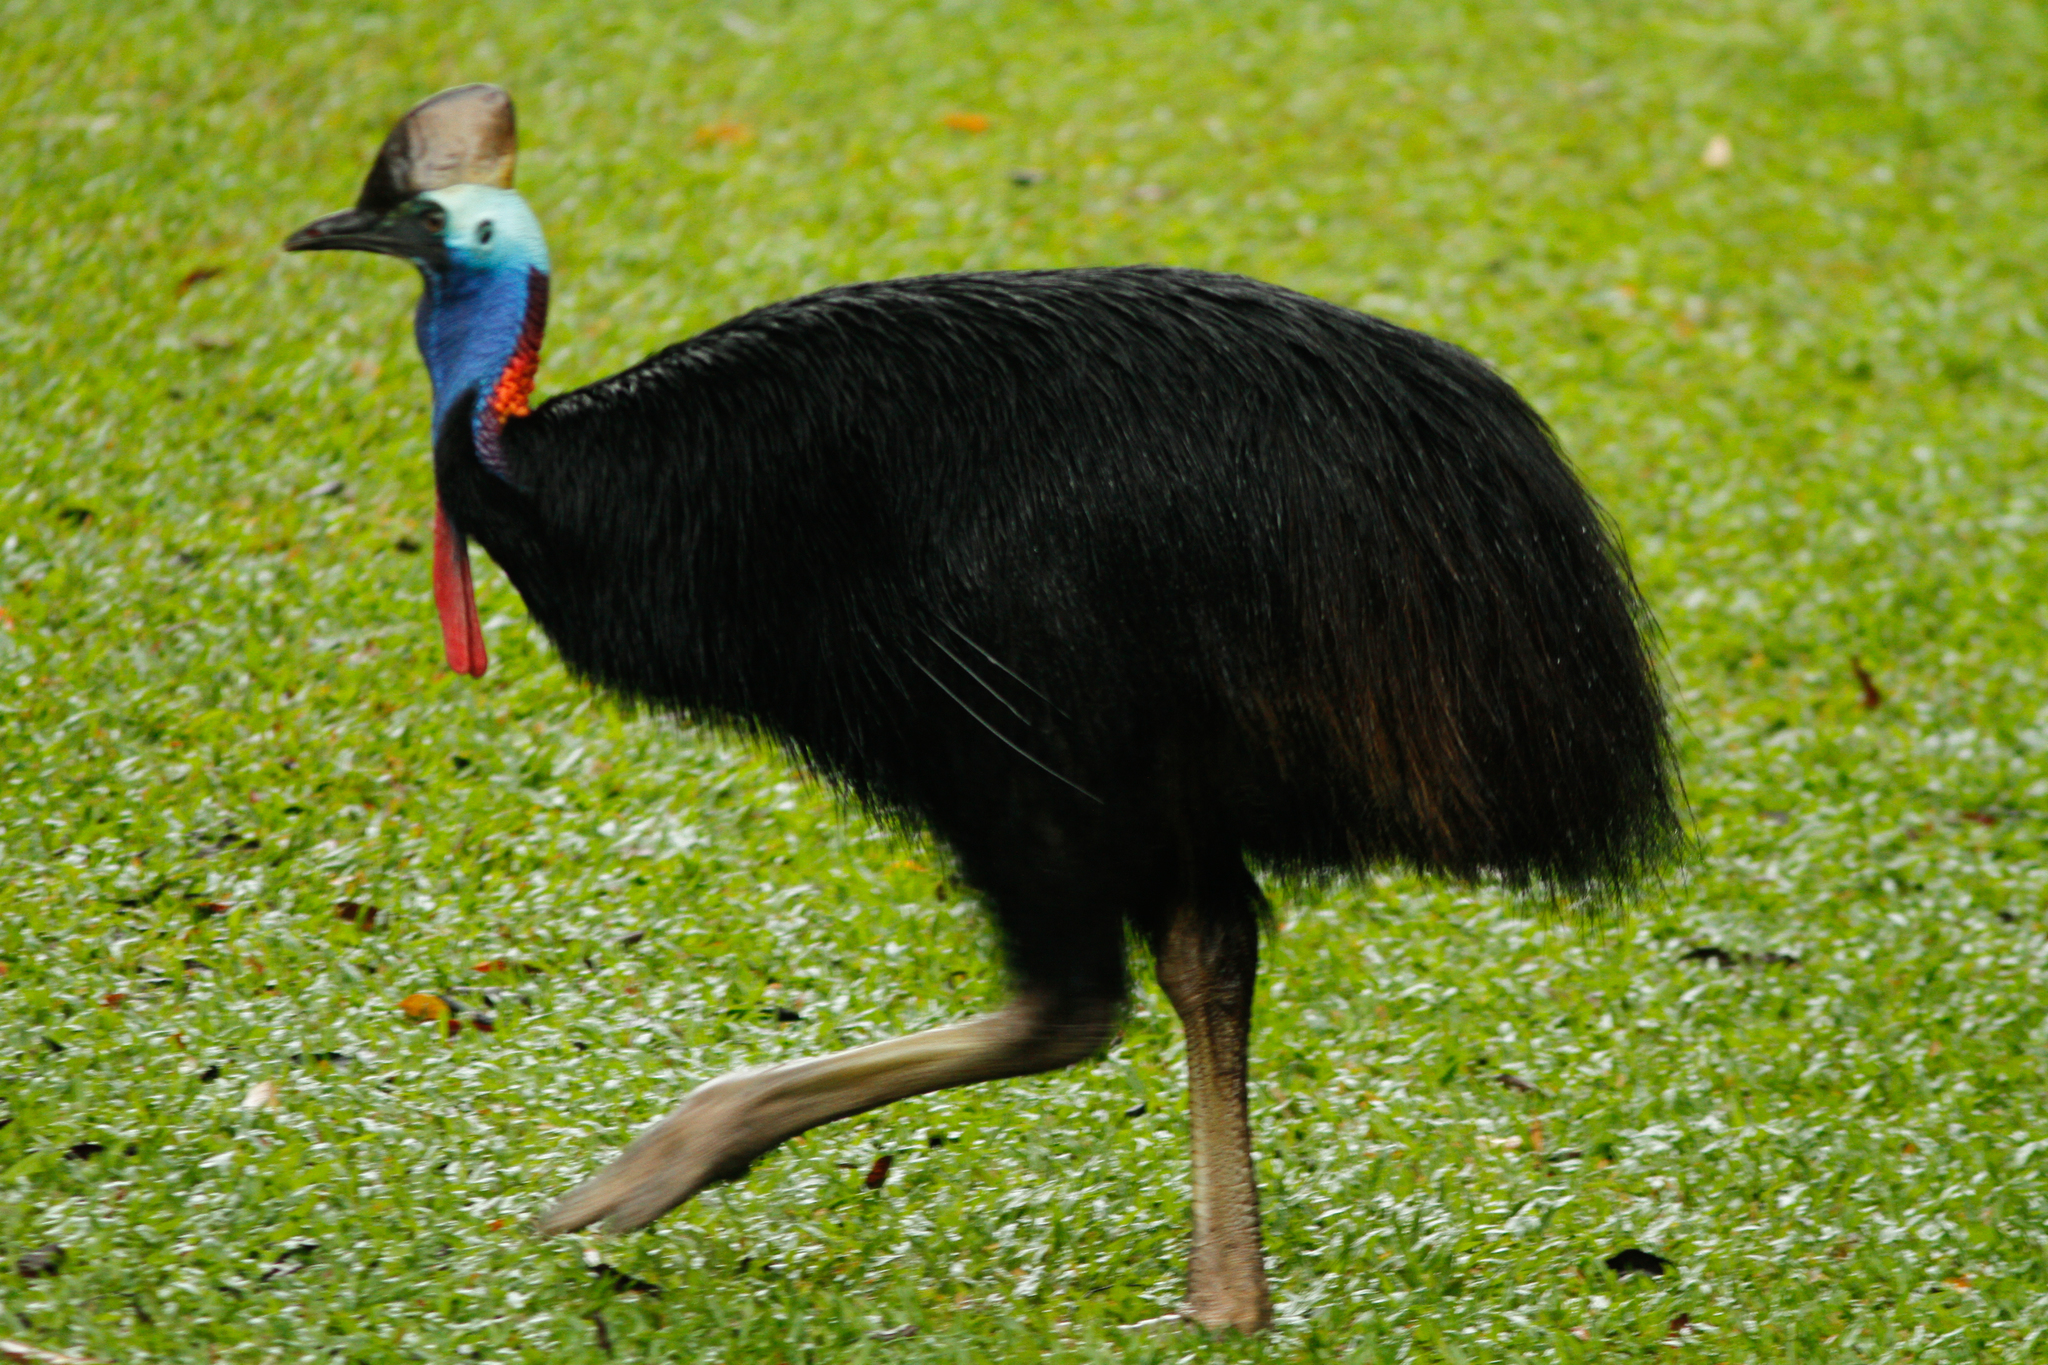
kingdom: Animalia
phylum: Chordata
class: Aves
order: Casuariiformes
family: Casuariidae
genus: Casuarius
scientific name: Casuarius casuarius
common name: Southern cassowary
